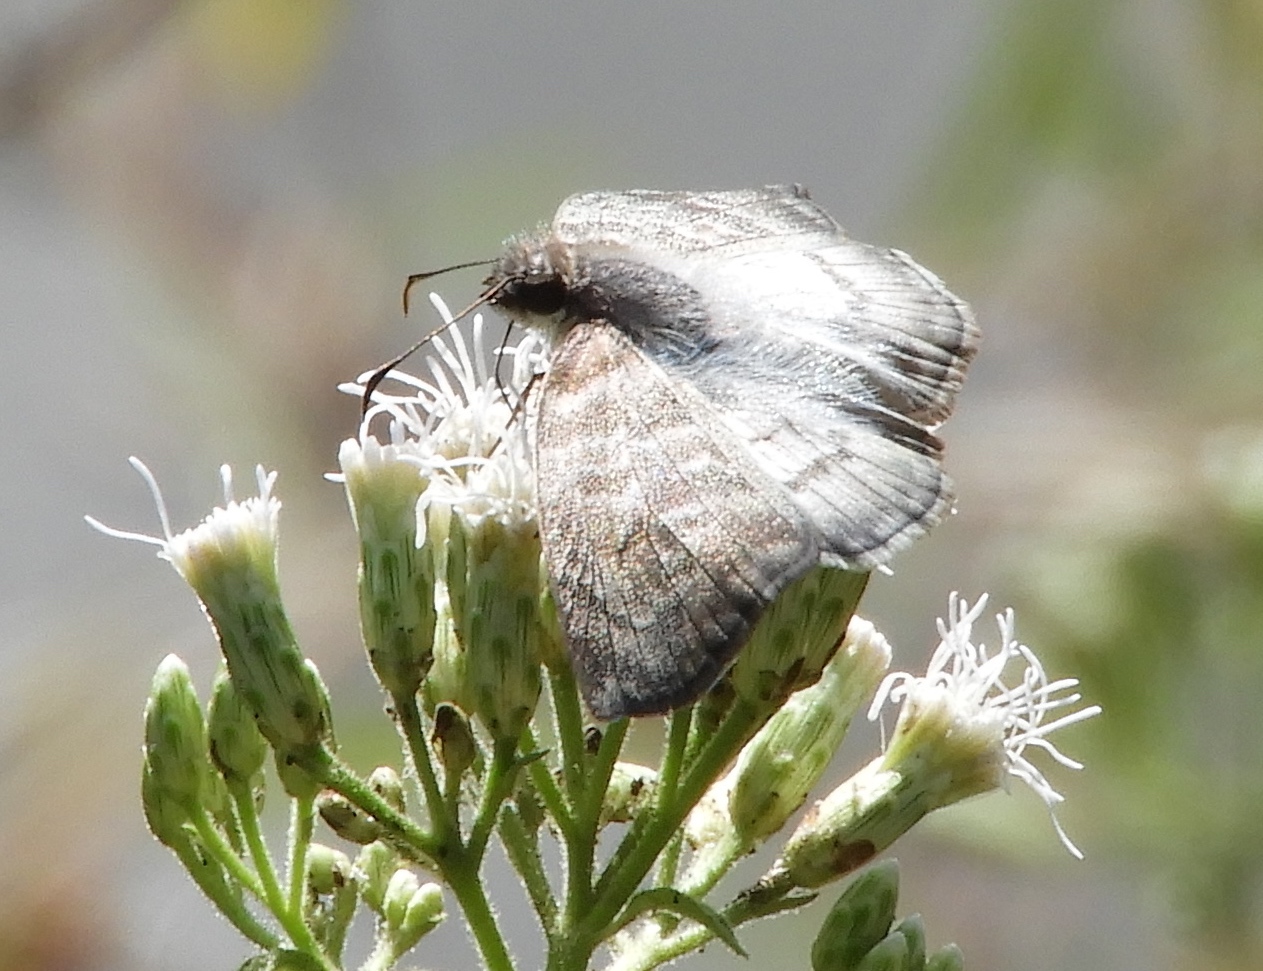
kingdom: Animalia
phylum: Arthropoda
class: Insecta
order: Lepidoptera
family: Hesperiidae
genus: Mylon
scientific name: Mylon pelopidas
